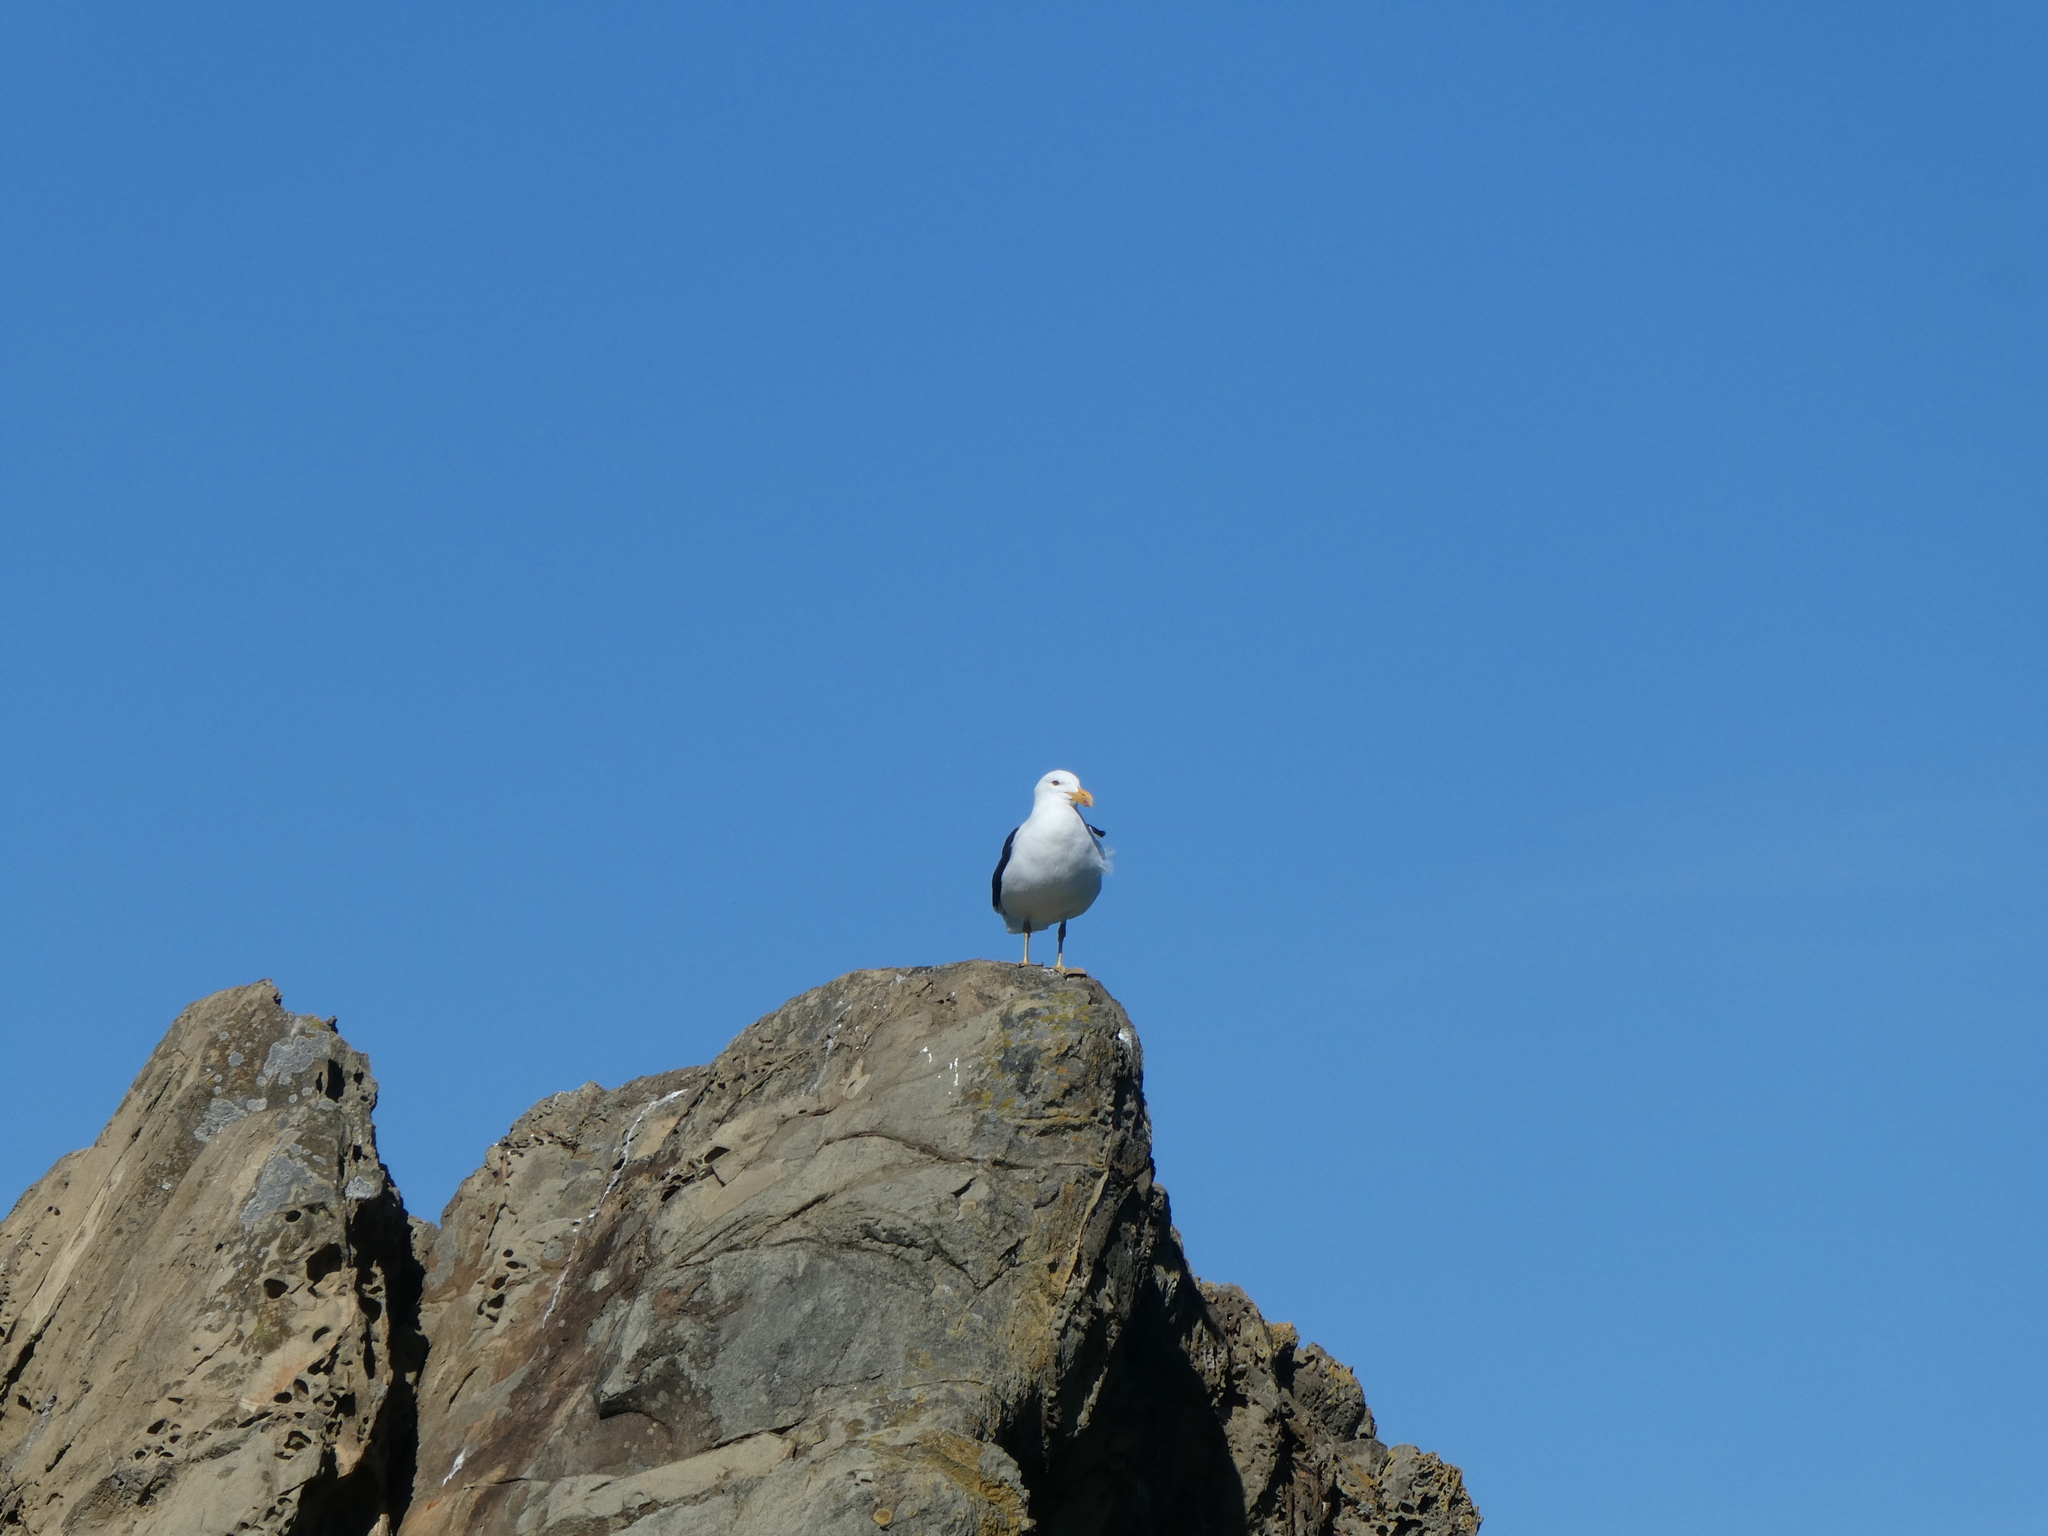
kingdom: Animalia
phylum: Chordata
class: Aves
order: Charadriiformes
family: Laridae
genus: Larus
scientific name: Larus dominicanus
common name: Kelp gull
